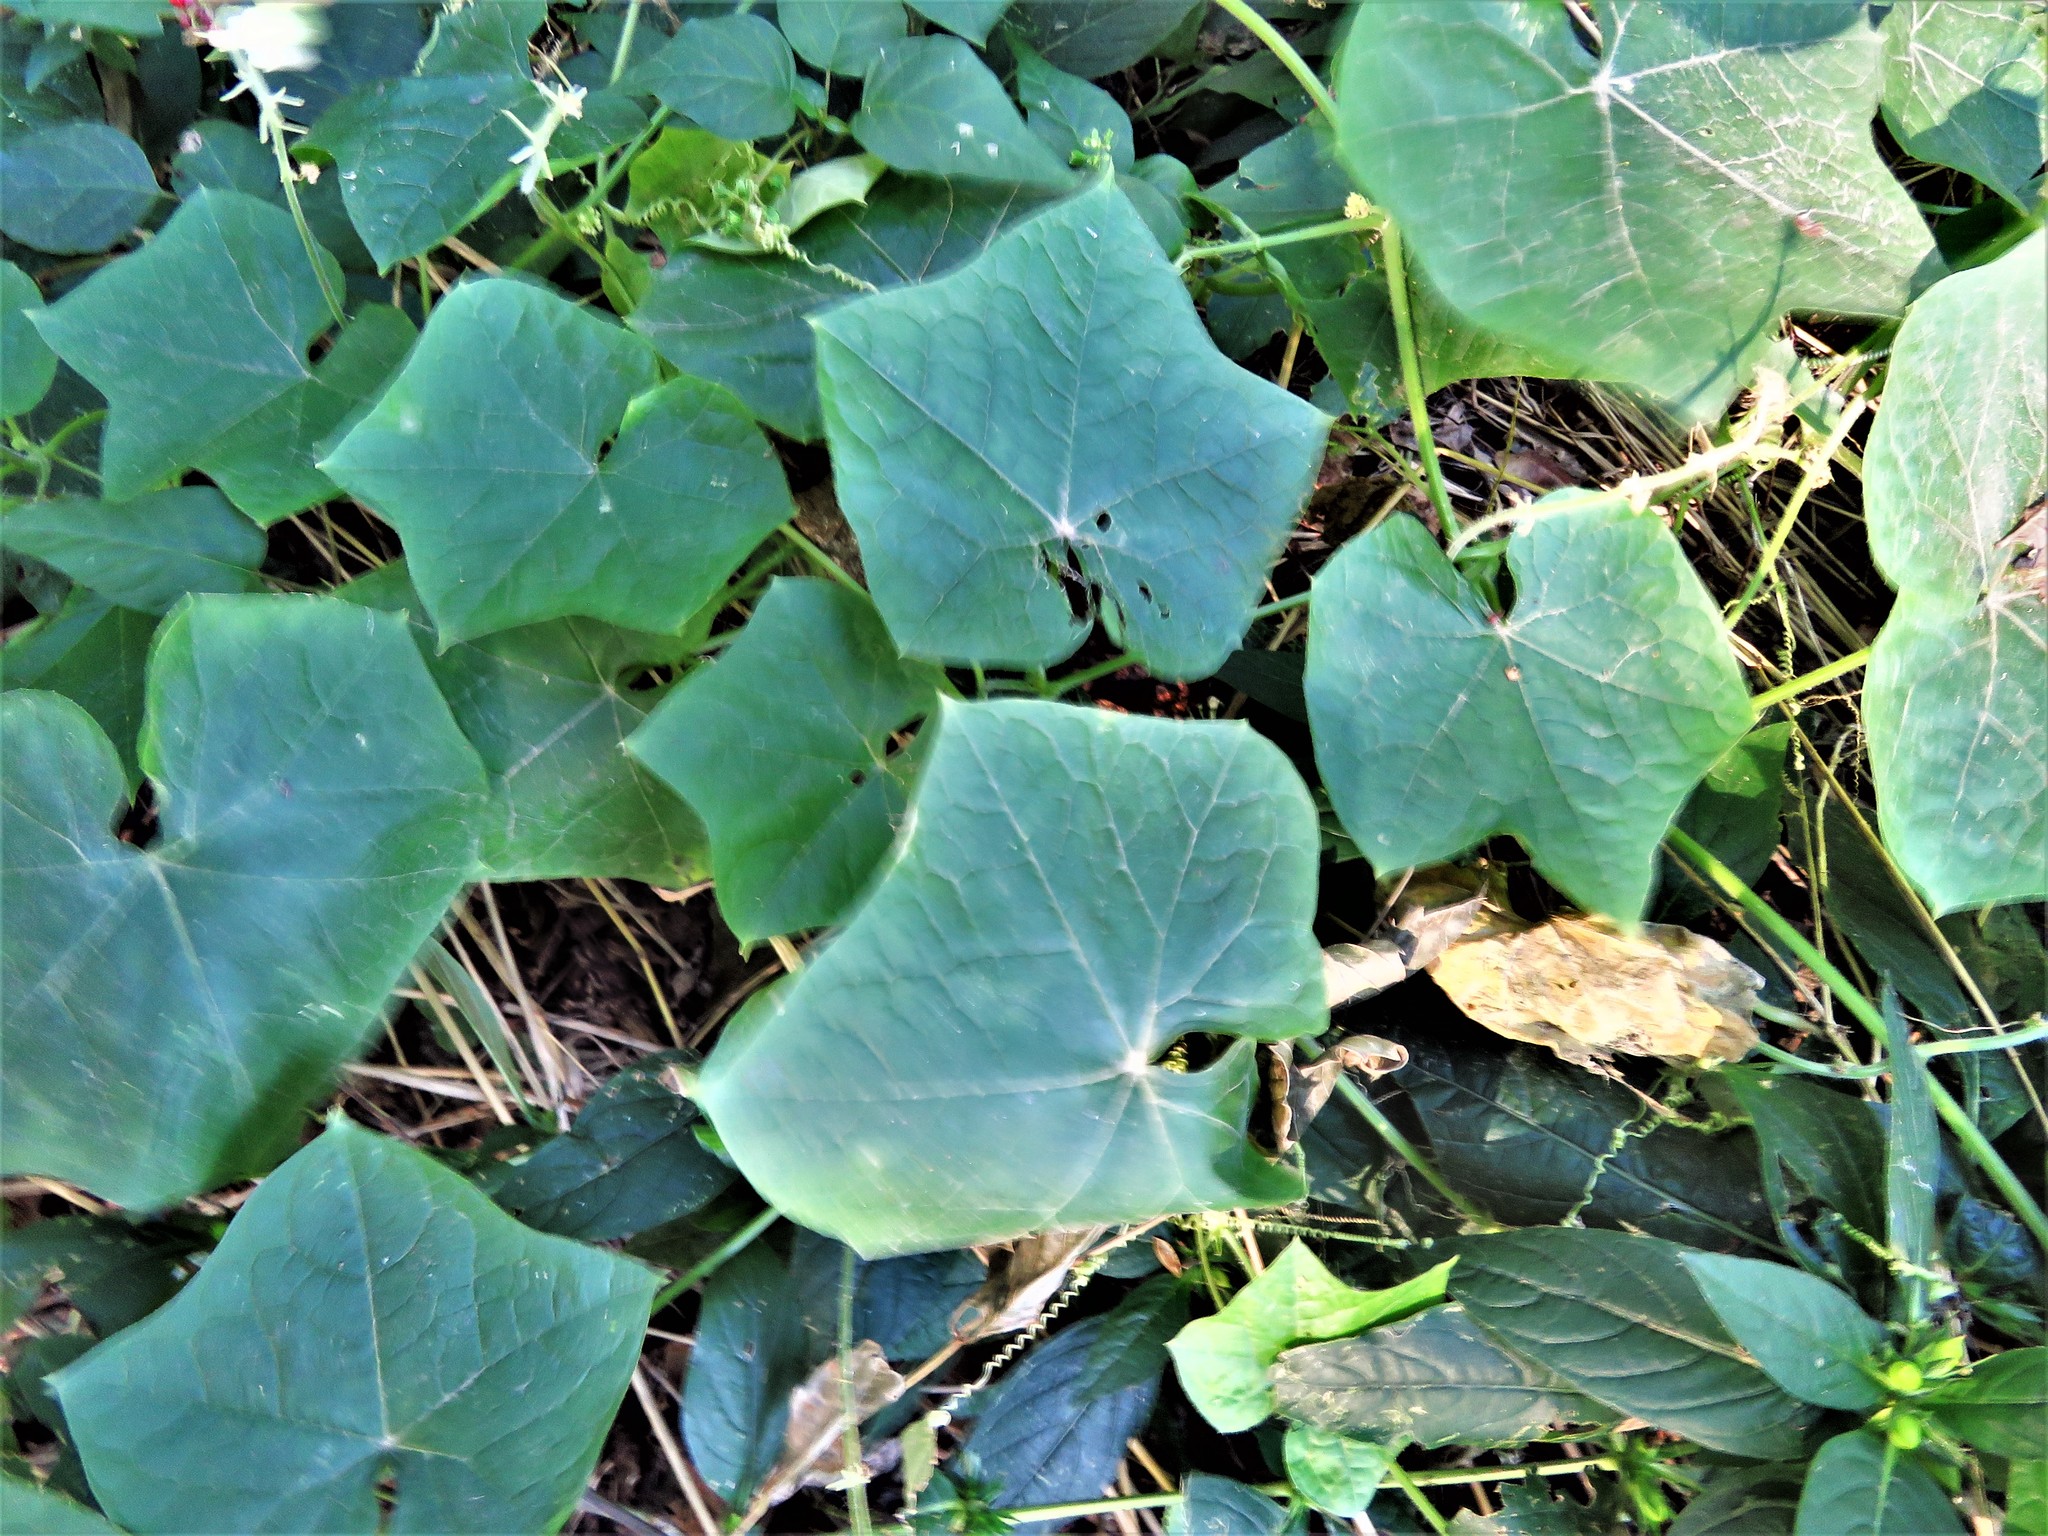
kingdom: Plantae
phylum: Tracheophyta
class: Magnoliopsida
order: Cucurbitales
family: Cucurbitaceae
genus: Sicyos
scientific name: Sicyos angulatus
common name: Angled burr cucumber
